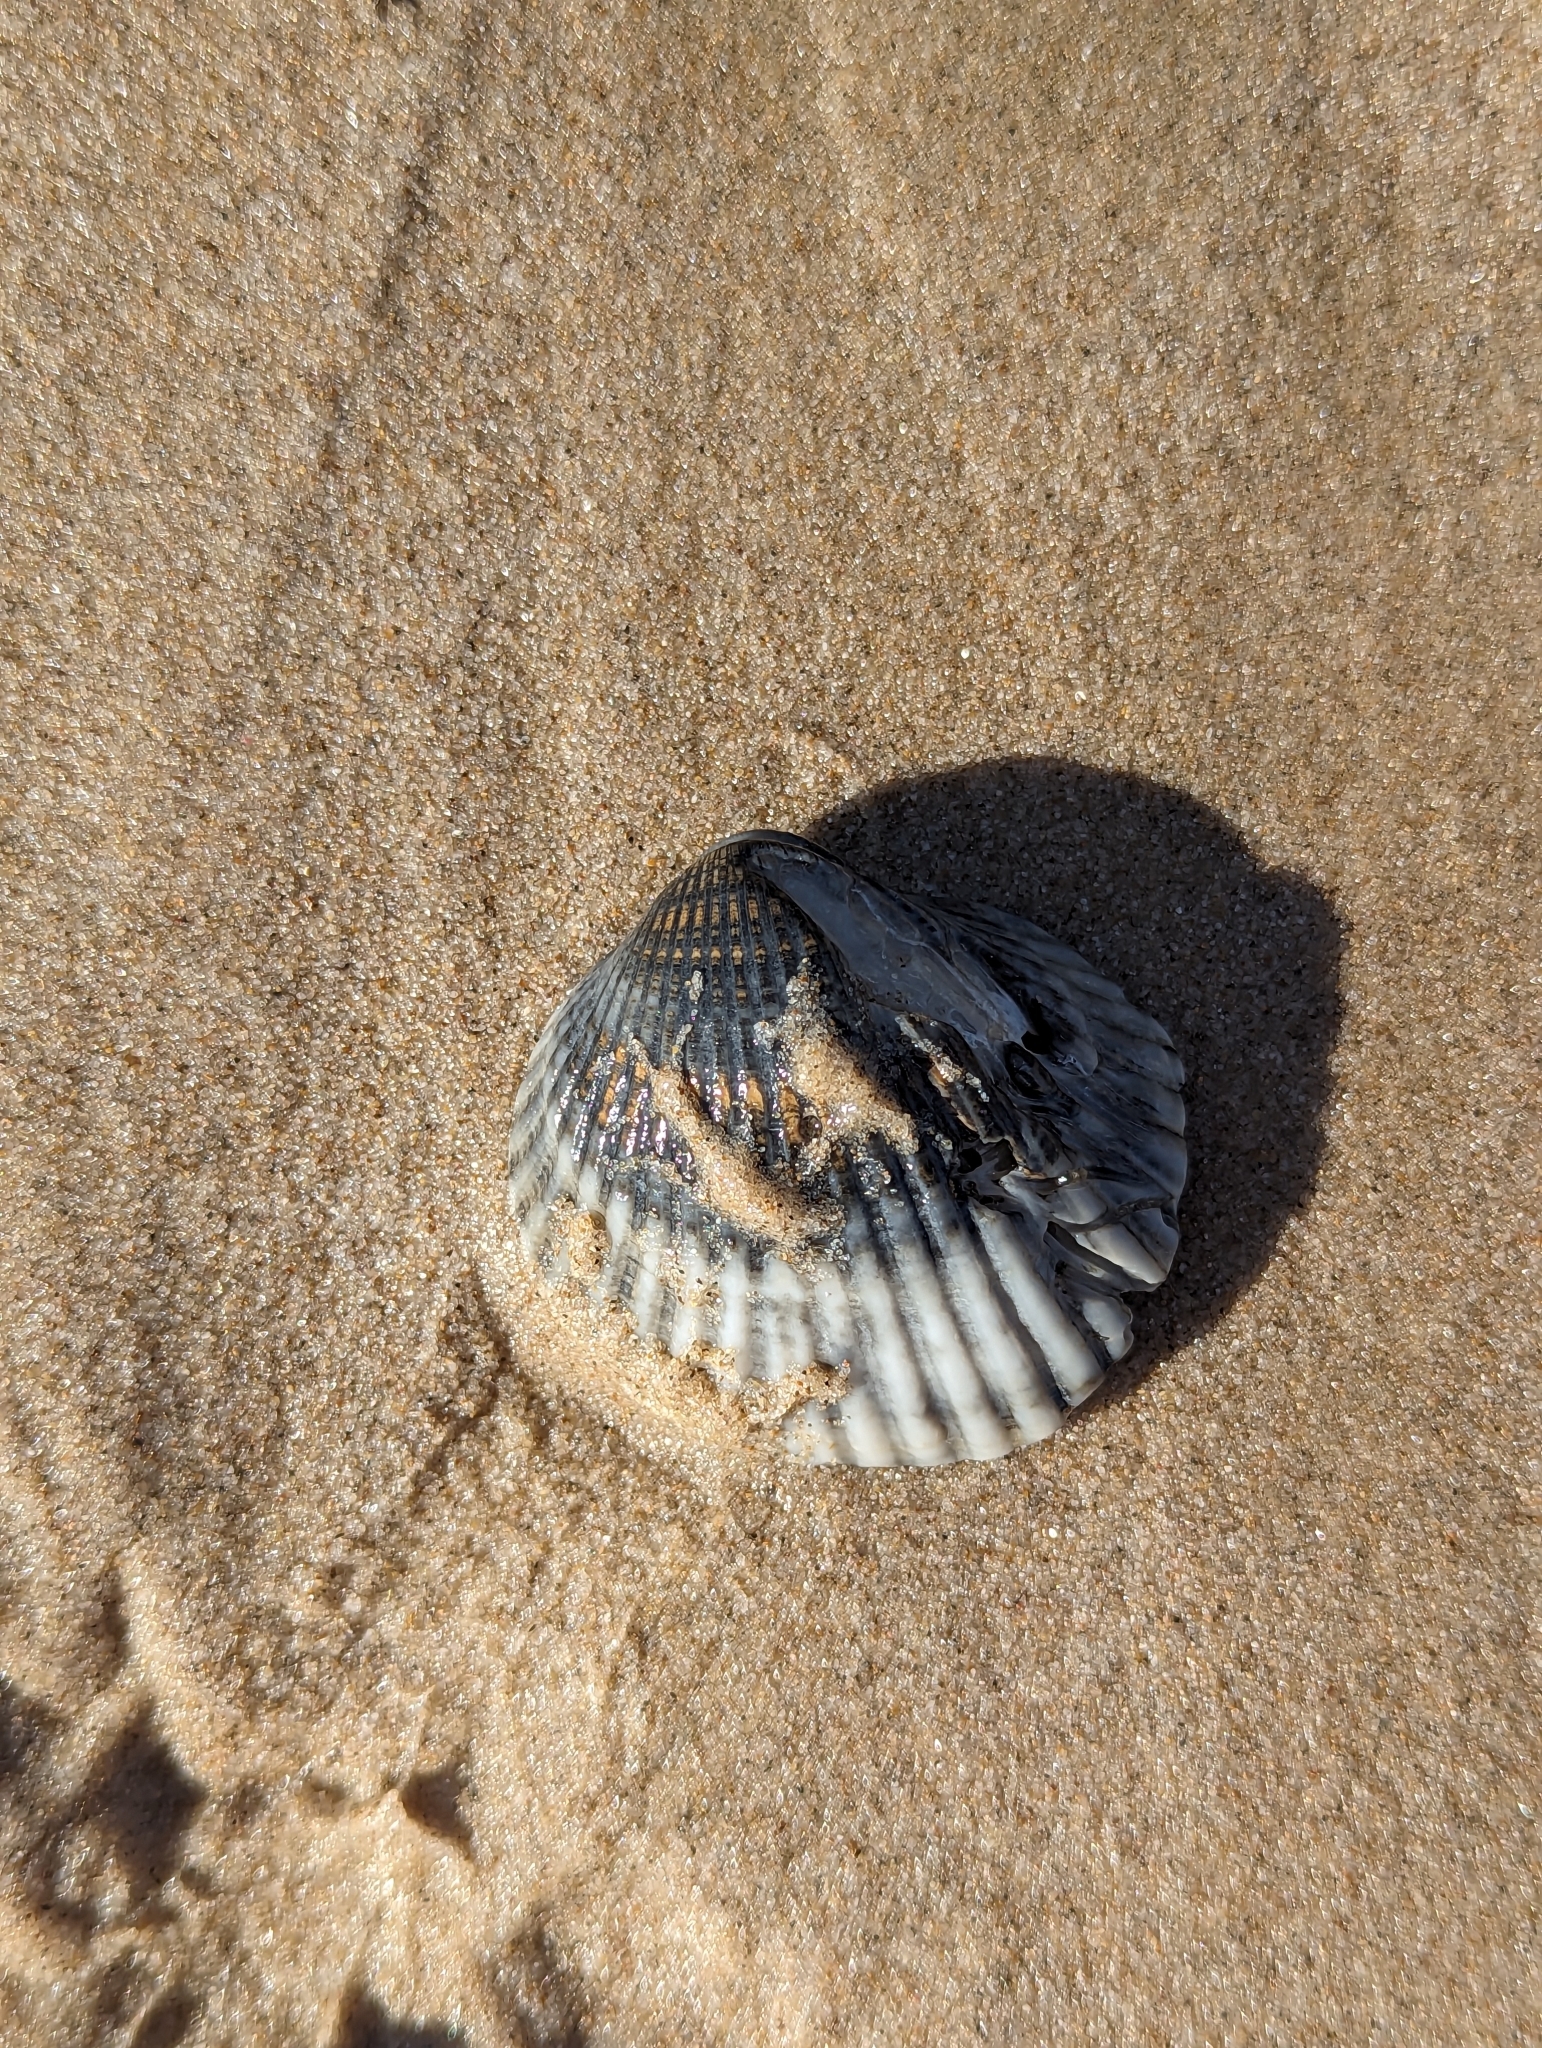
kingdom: Animalia
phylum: Mollusca
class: Bivalvia
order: Arcida
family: Arcidae
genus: Anadara
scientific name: Anadara trapezia
